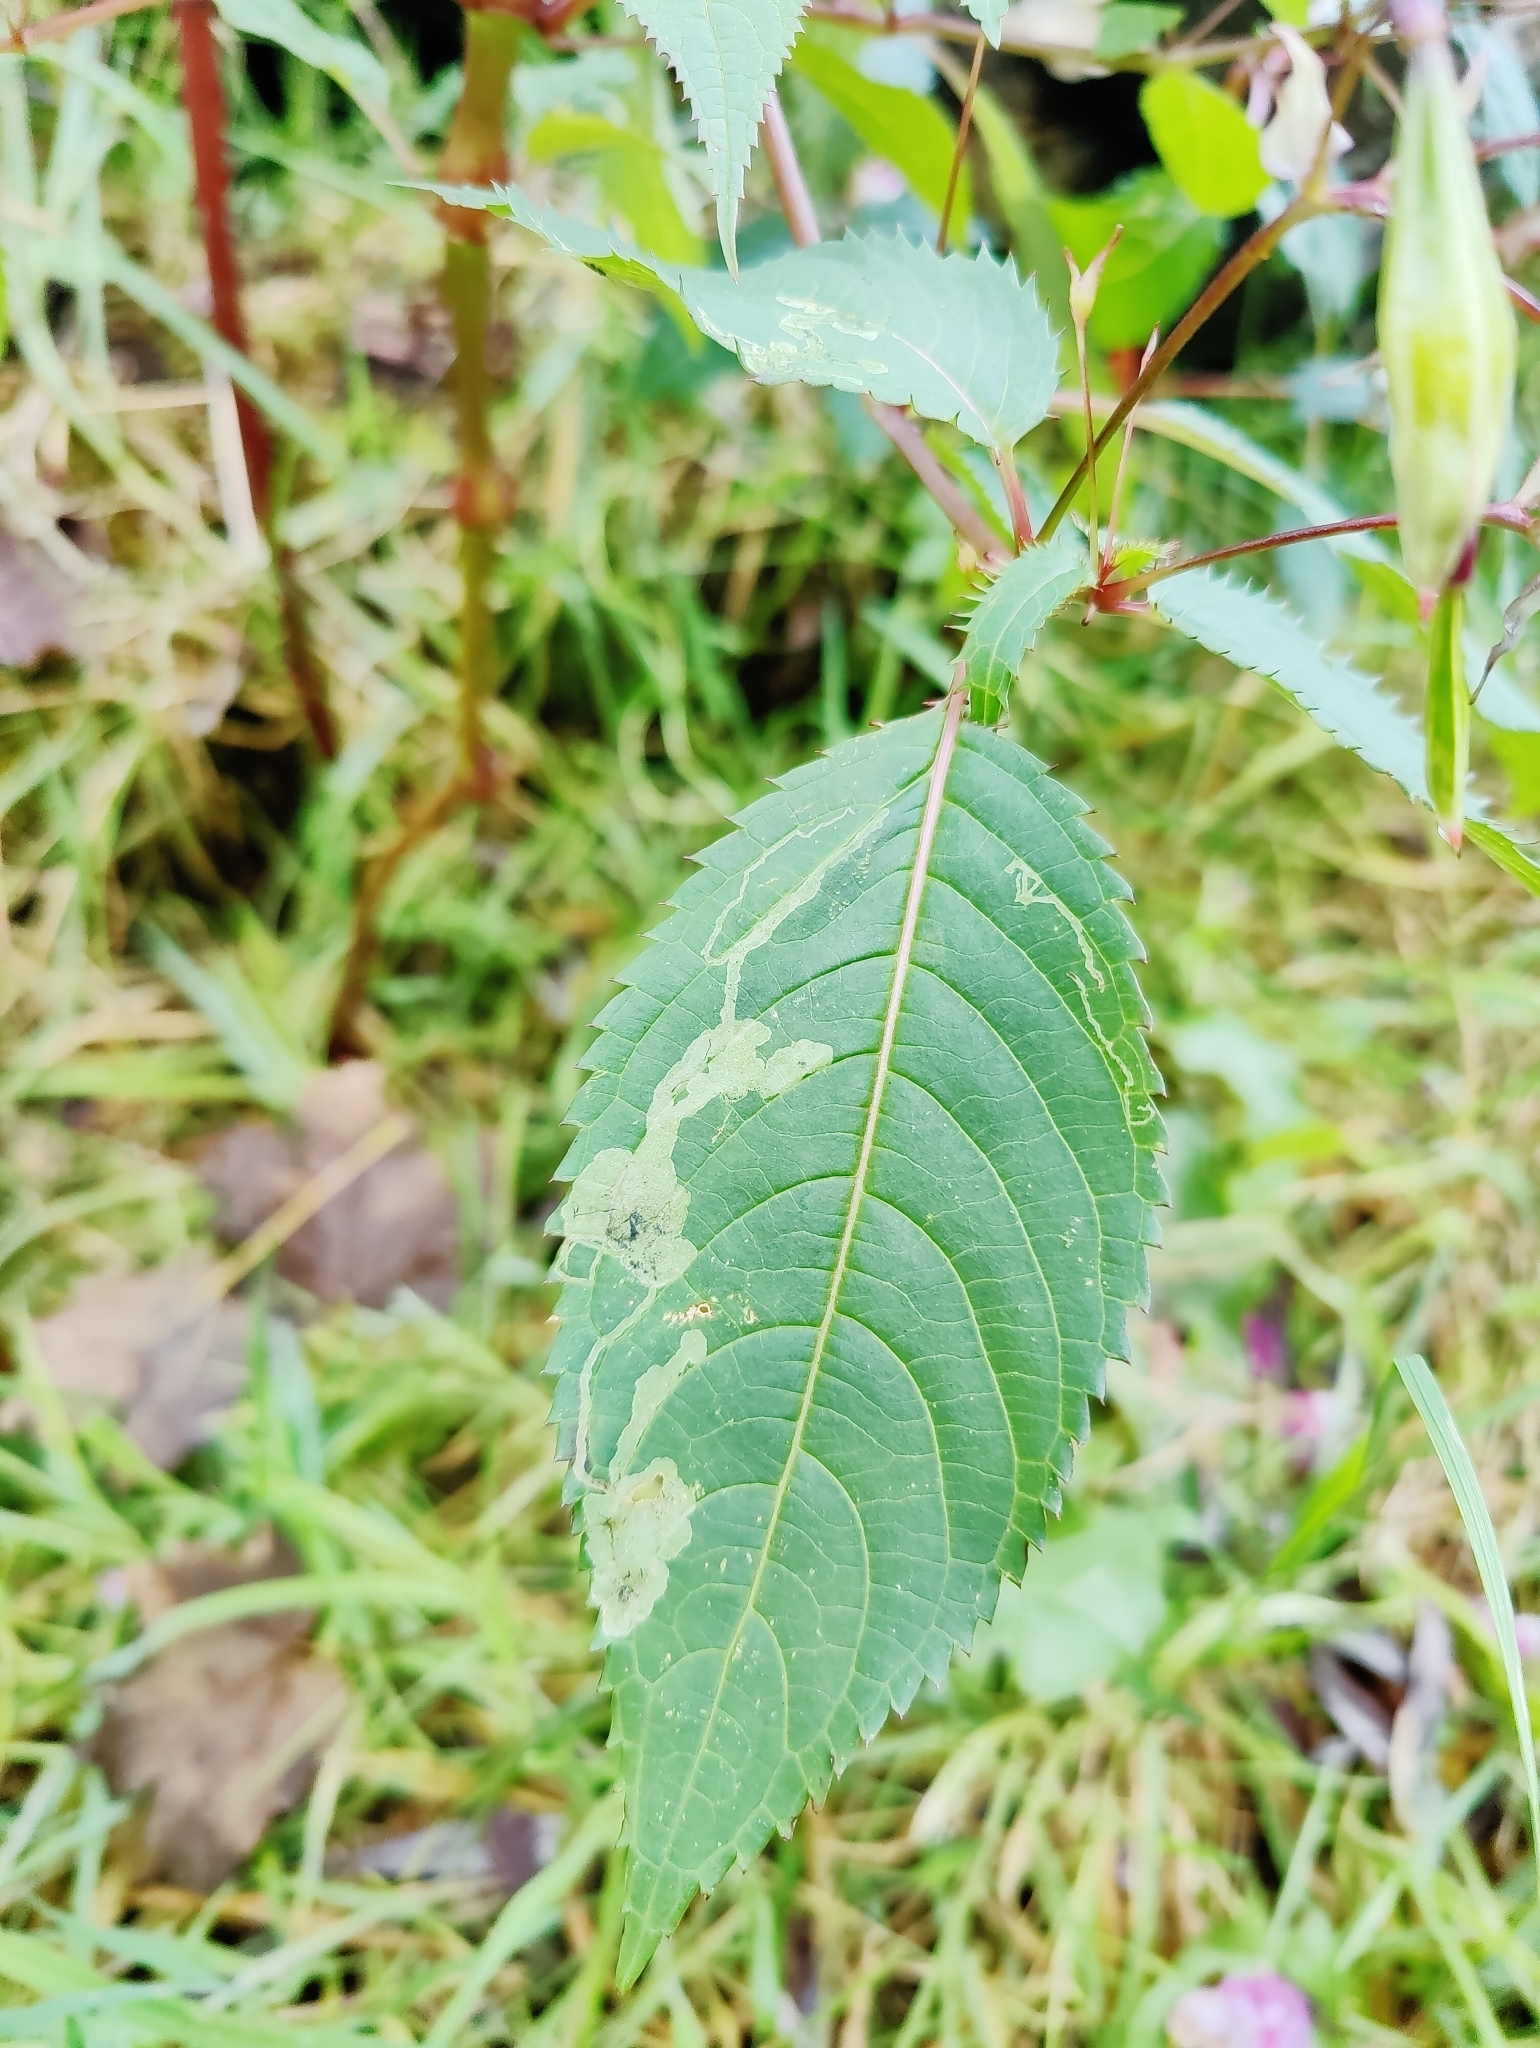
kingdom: Animalia
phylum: Arthropoda
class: Insecta
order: Diptera
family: Agromyzidae
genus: Phytoliriomyza
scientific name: Phytoliriomyza melampyga
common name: Jewelweed leaf-miner fly
